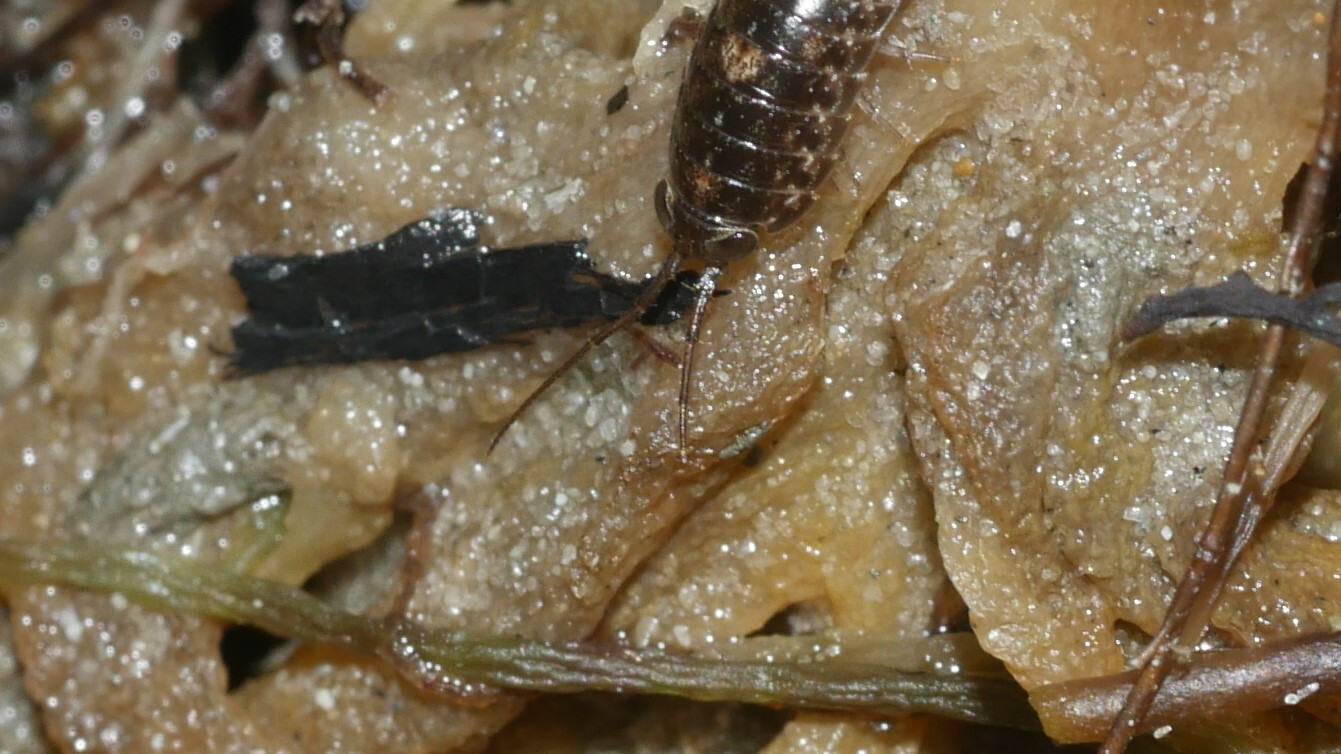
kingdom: Animalia
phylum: Arthropoda
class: Malacostraca
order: Isopoda
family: Ligiidae
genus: Ligia
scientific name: Ligia exotica
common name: Wharf roach
